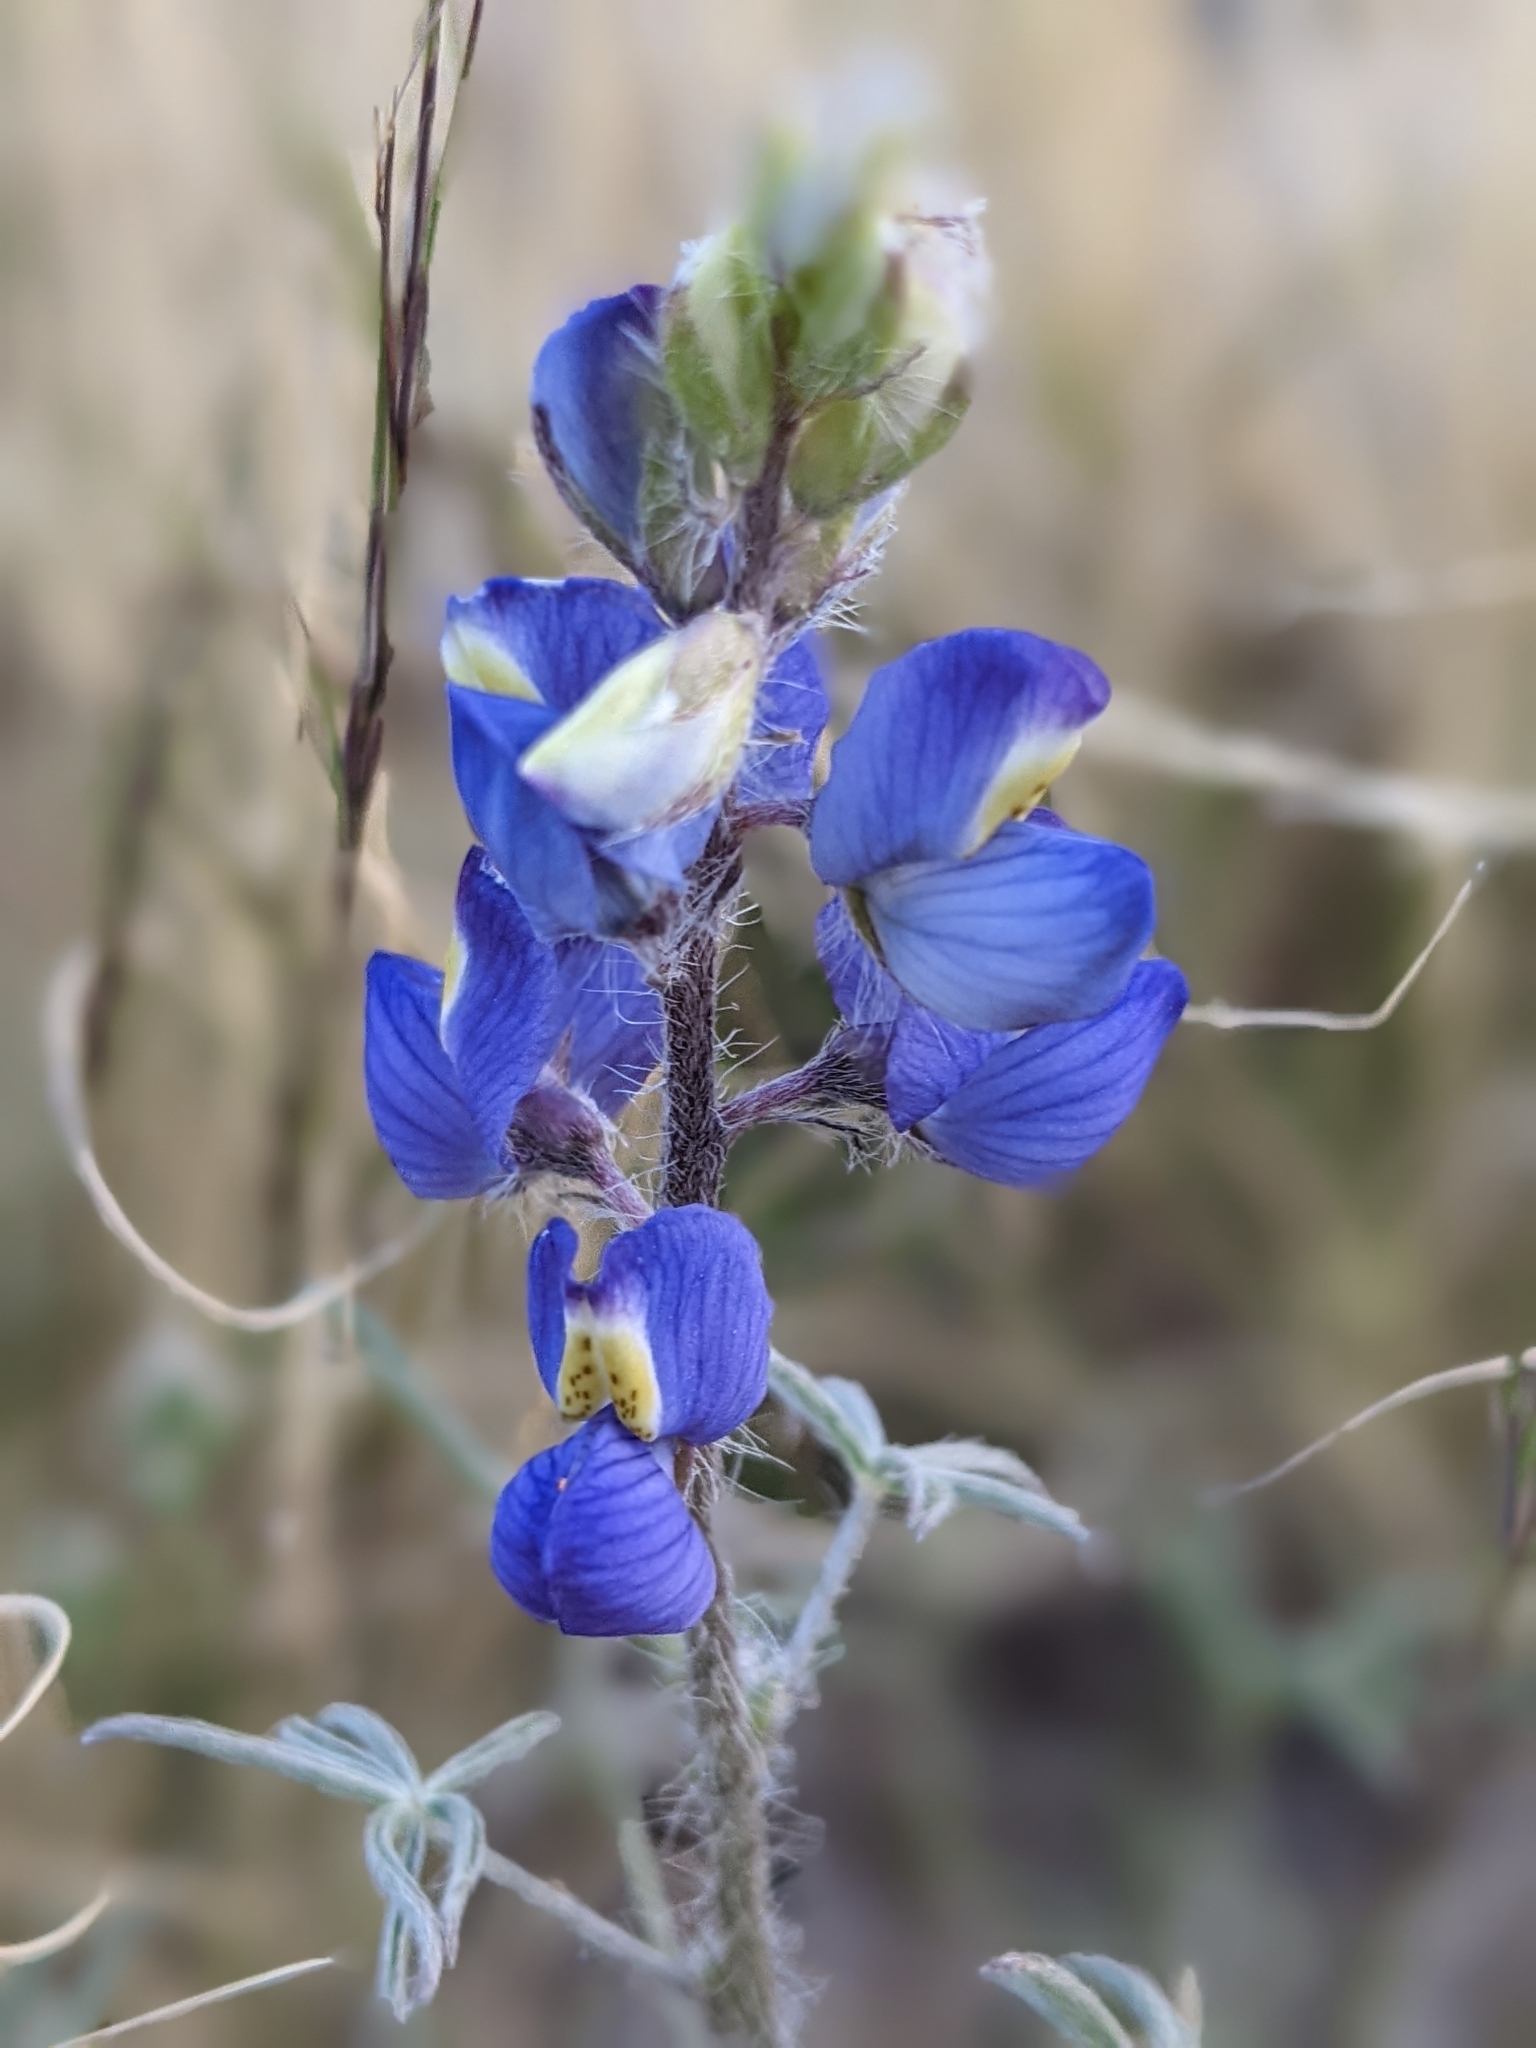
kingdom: Plantae
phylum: Tracheophyta
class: Magnoliopsida
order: Fabales
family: Fabaceae
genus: Lupinus
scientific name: Lupinus sparsiflorus
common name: Coulter's lupine
